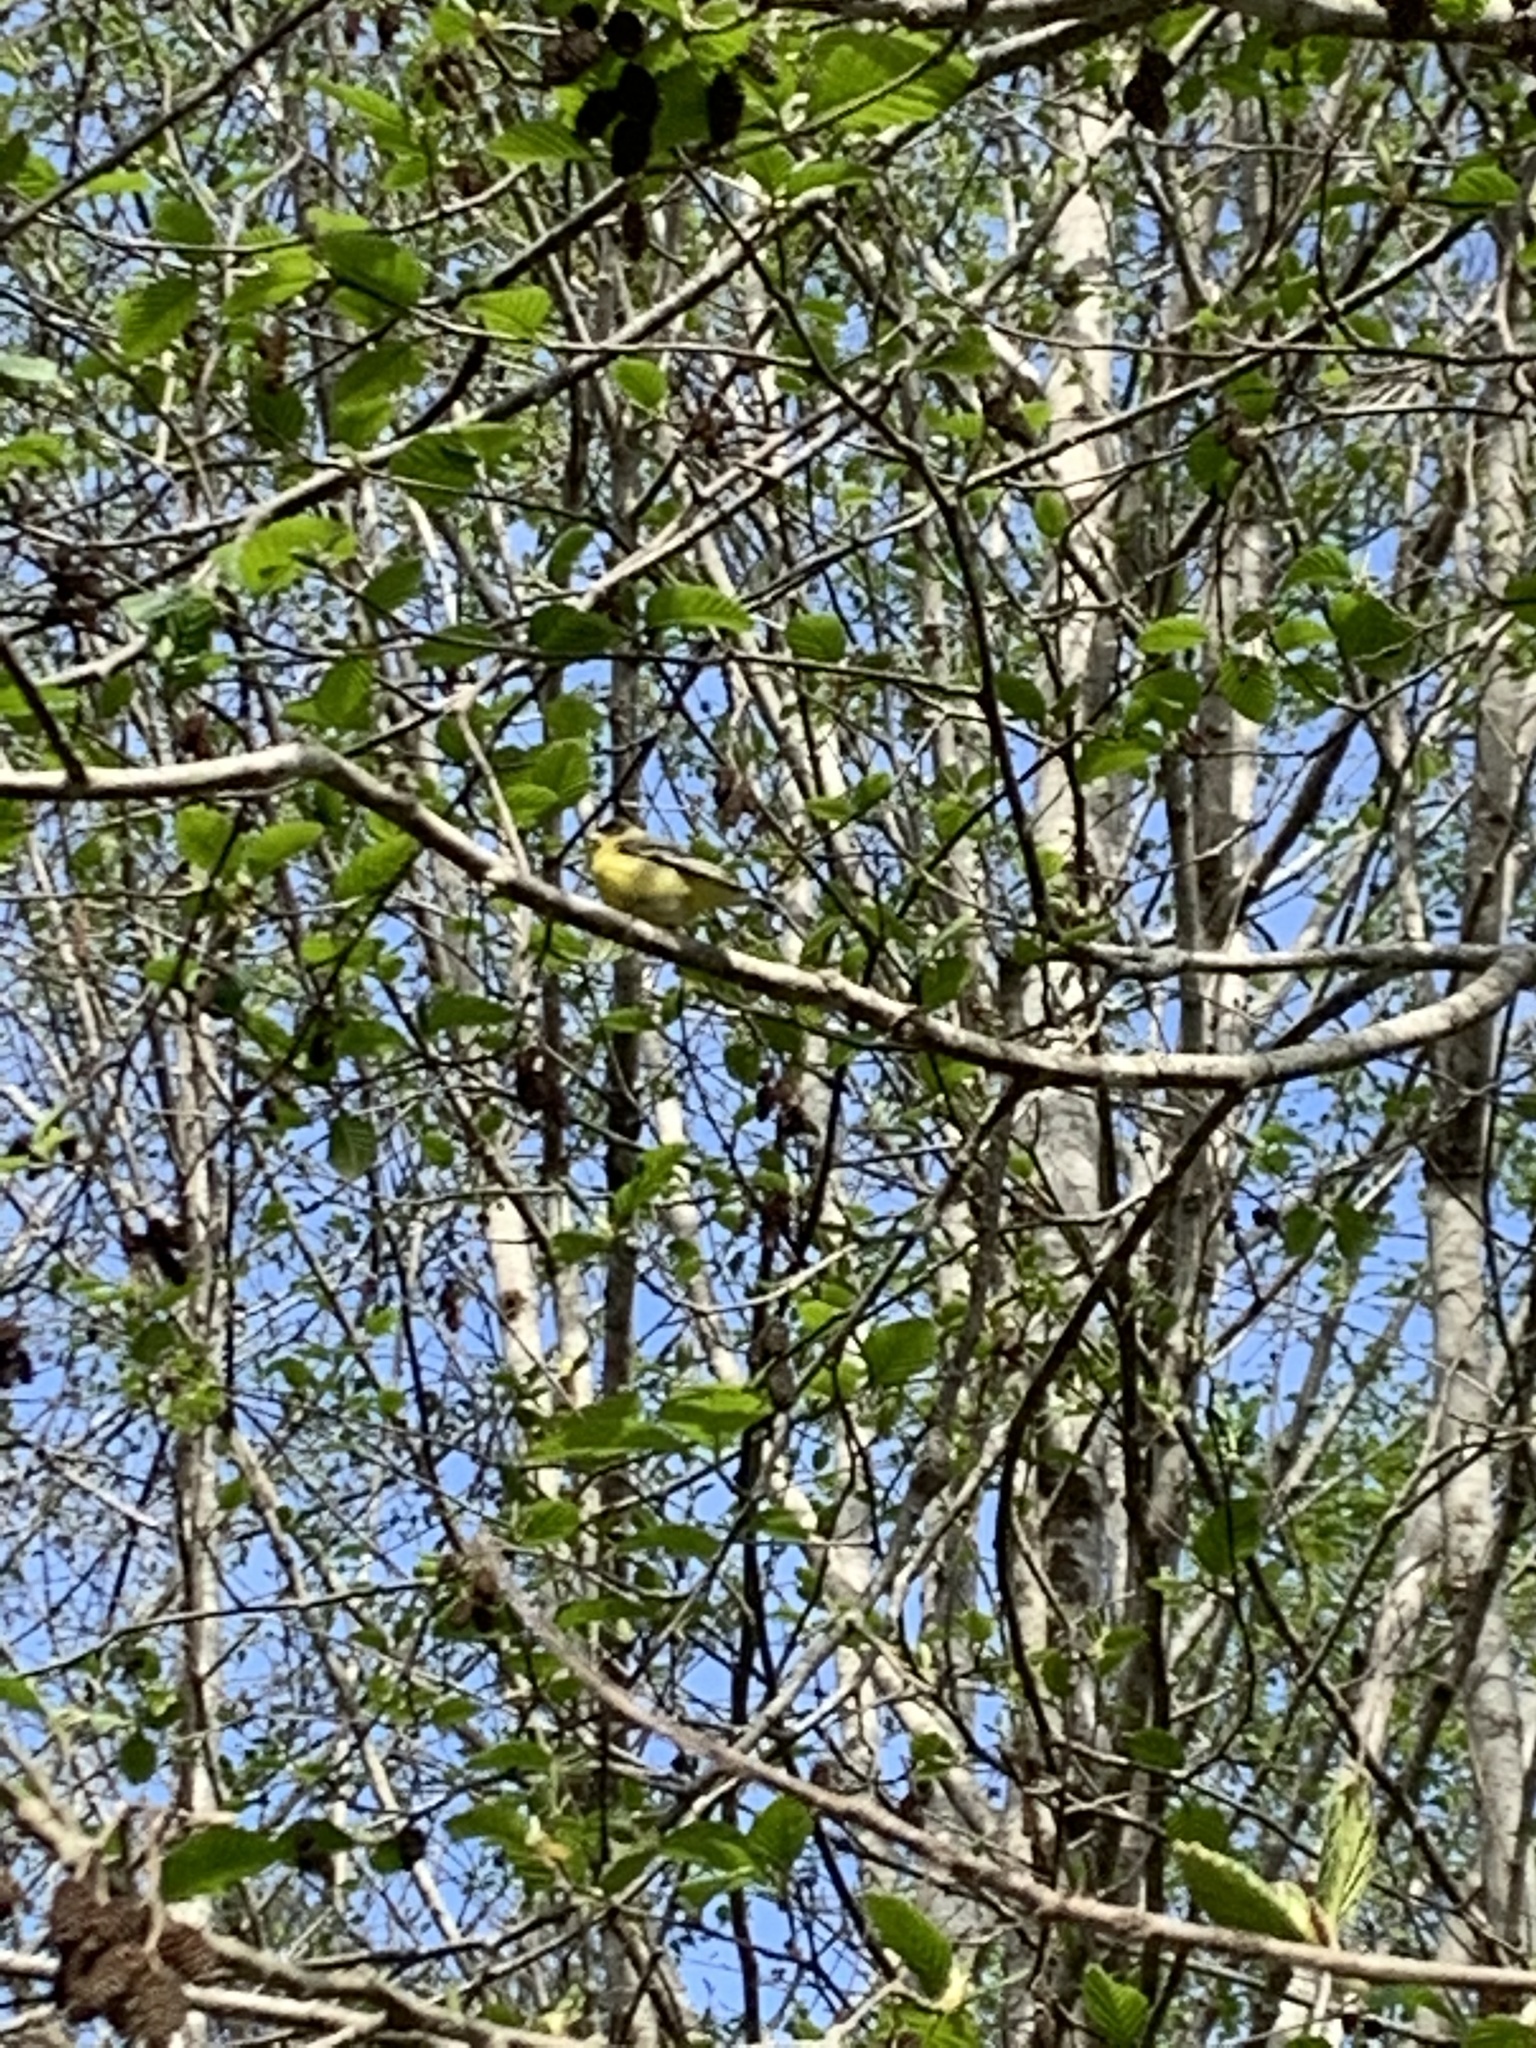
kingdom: Animalia
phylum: Chordata
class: Aves
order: Passeriformes
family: Fringillidae
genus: Spinus
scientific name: Spinus psaltria
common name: Lesser goldfinch
